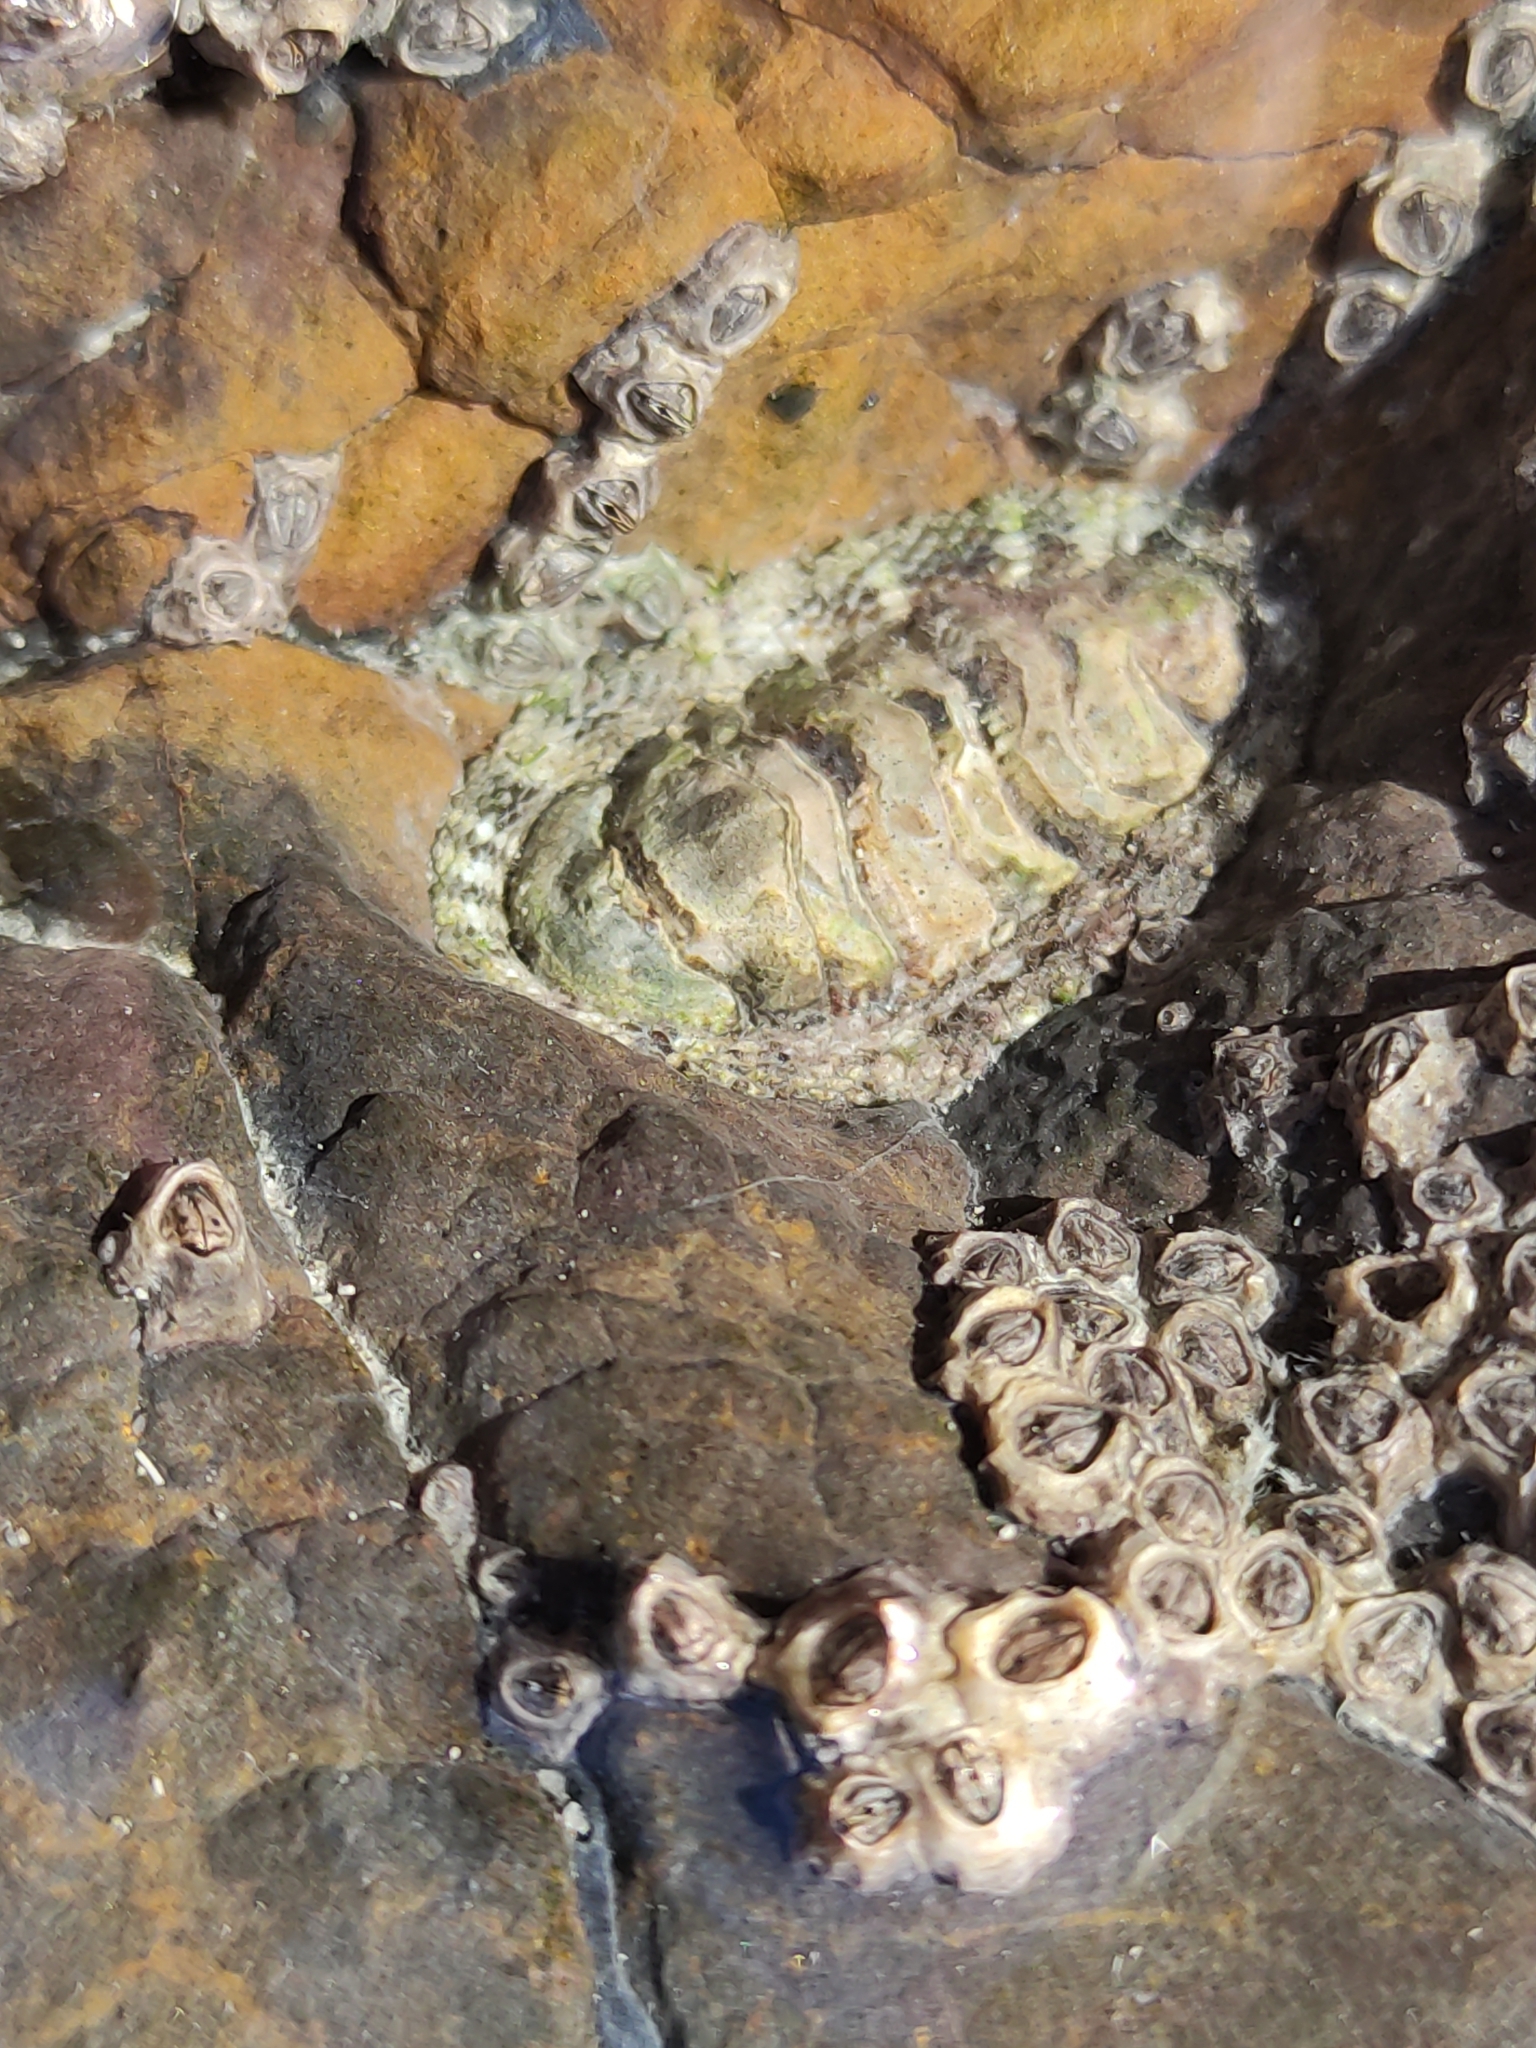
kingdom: Animalia
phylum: Mollusca
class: Polyplacophora
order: Chitonida
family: Chitonidae
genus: Sypharochiton
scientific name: Sypharochiton pelliserpentis
